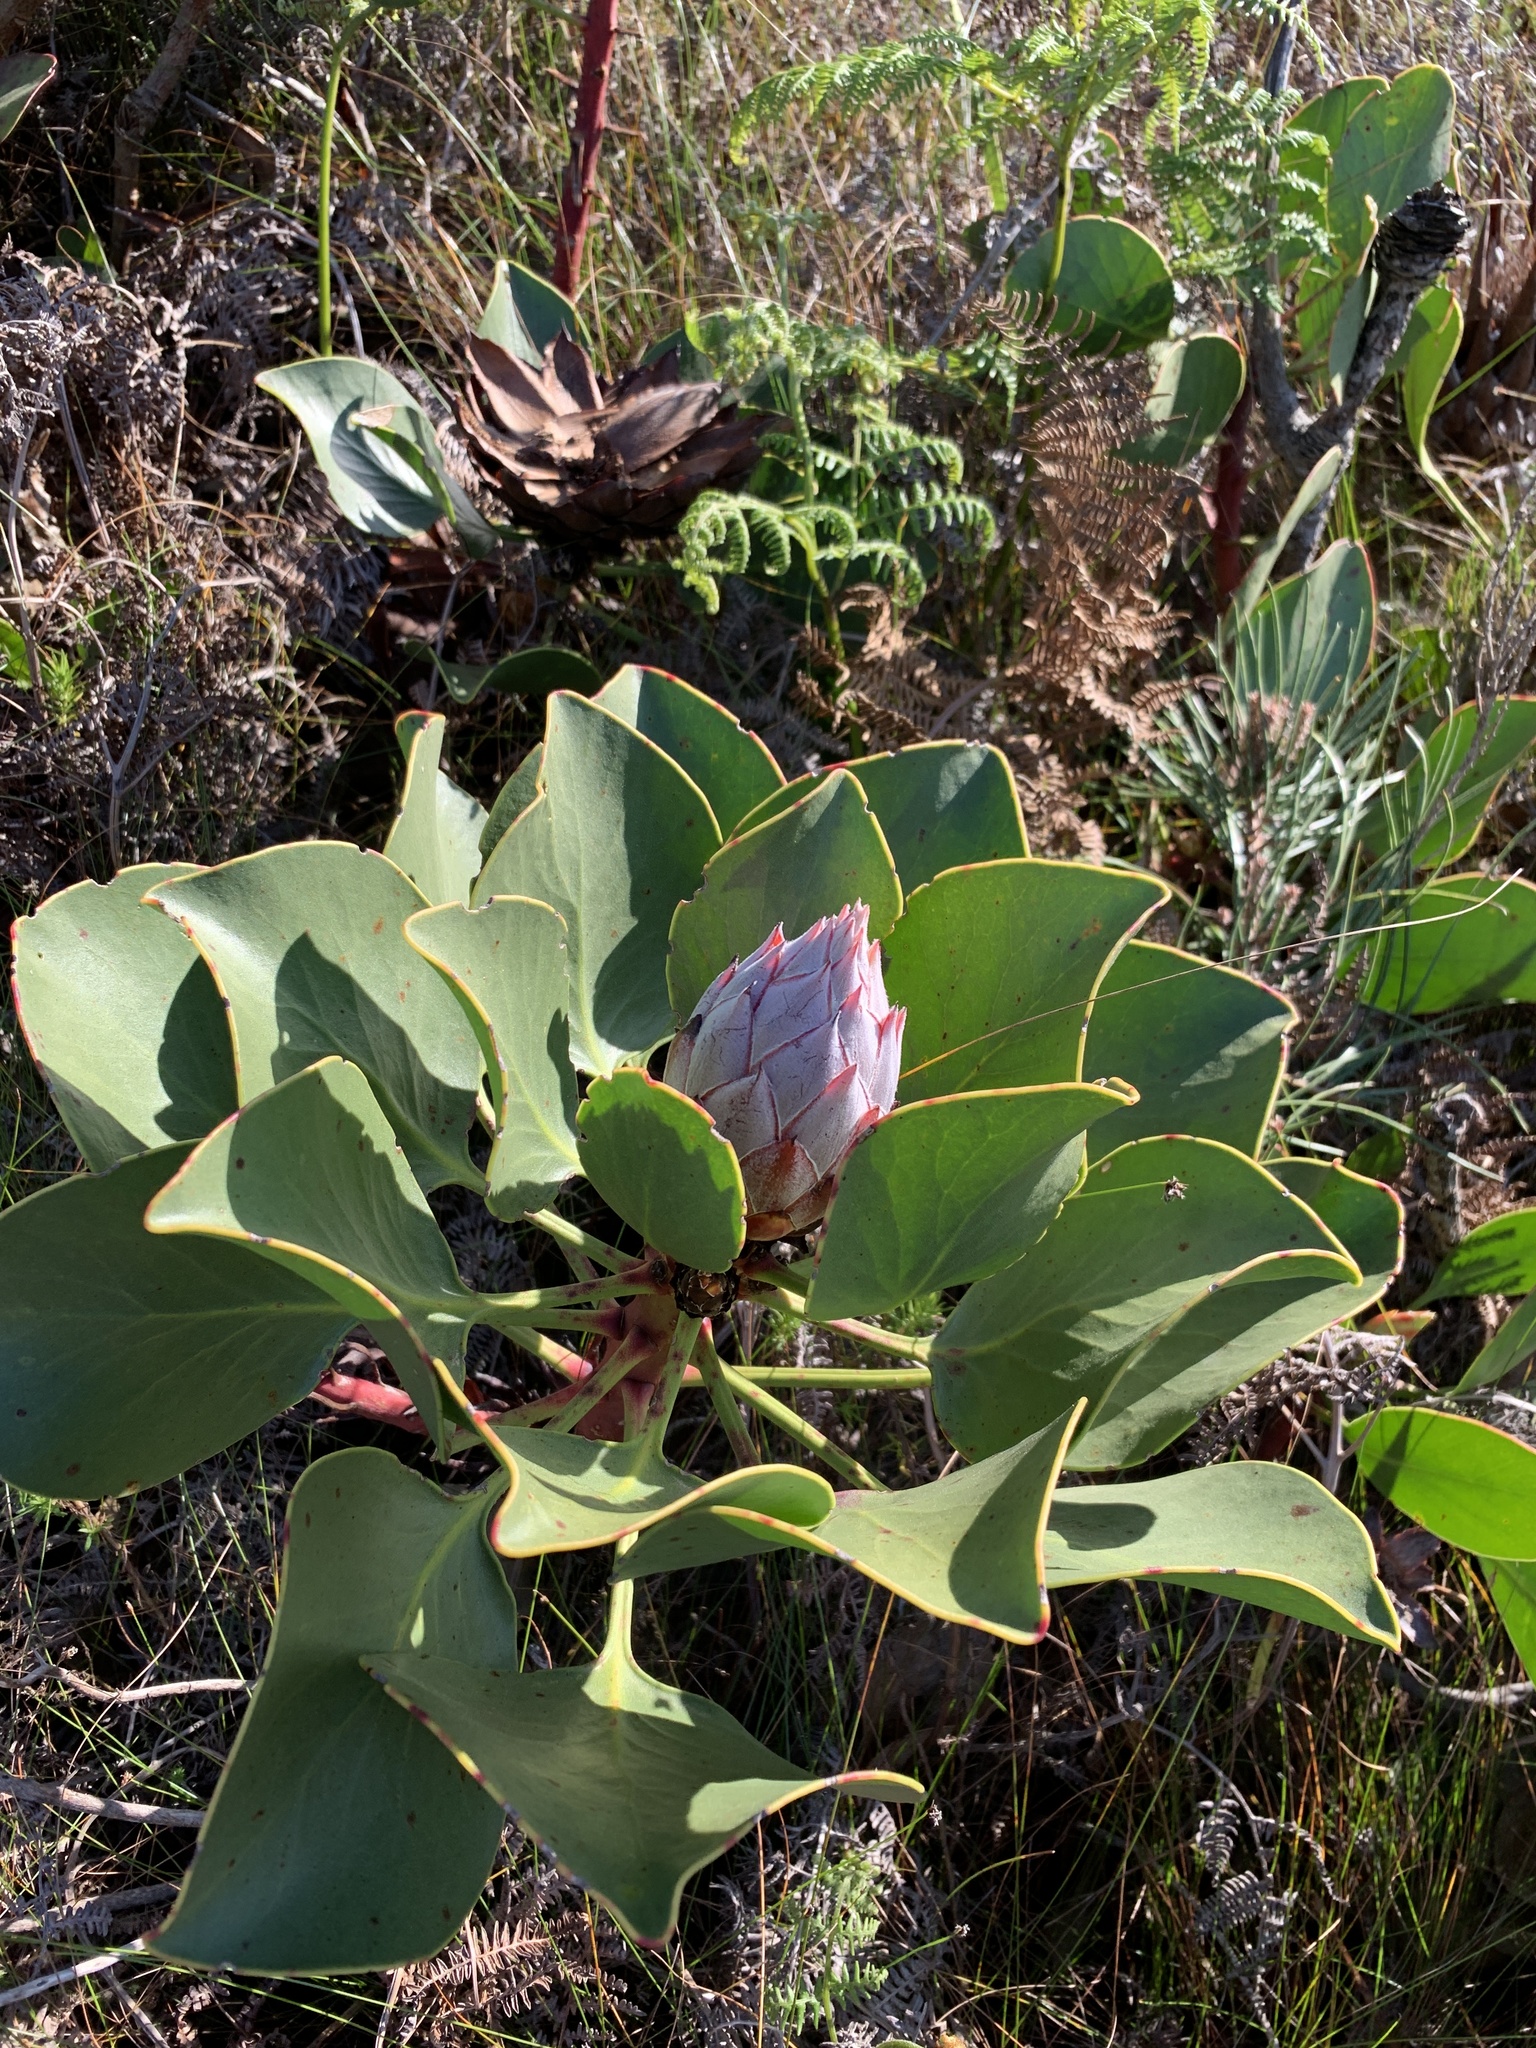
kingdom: Plantae
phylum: Tracheophyta
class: Magnoliopsida
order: Proteales
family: Proteaceae
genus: Protea
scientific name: Protea cynaroides
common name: King protea
